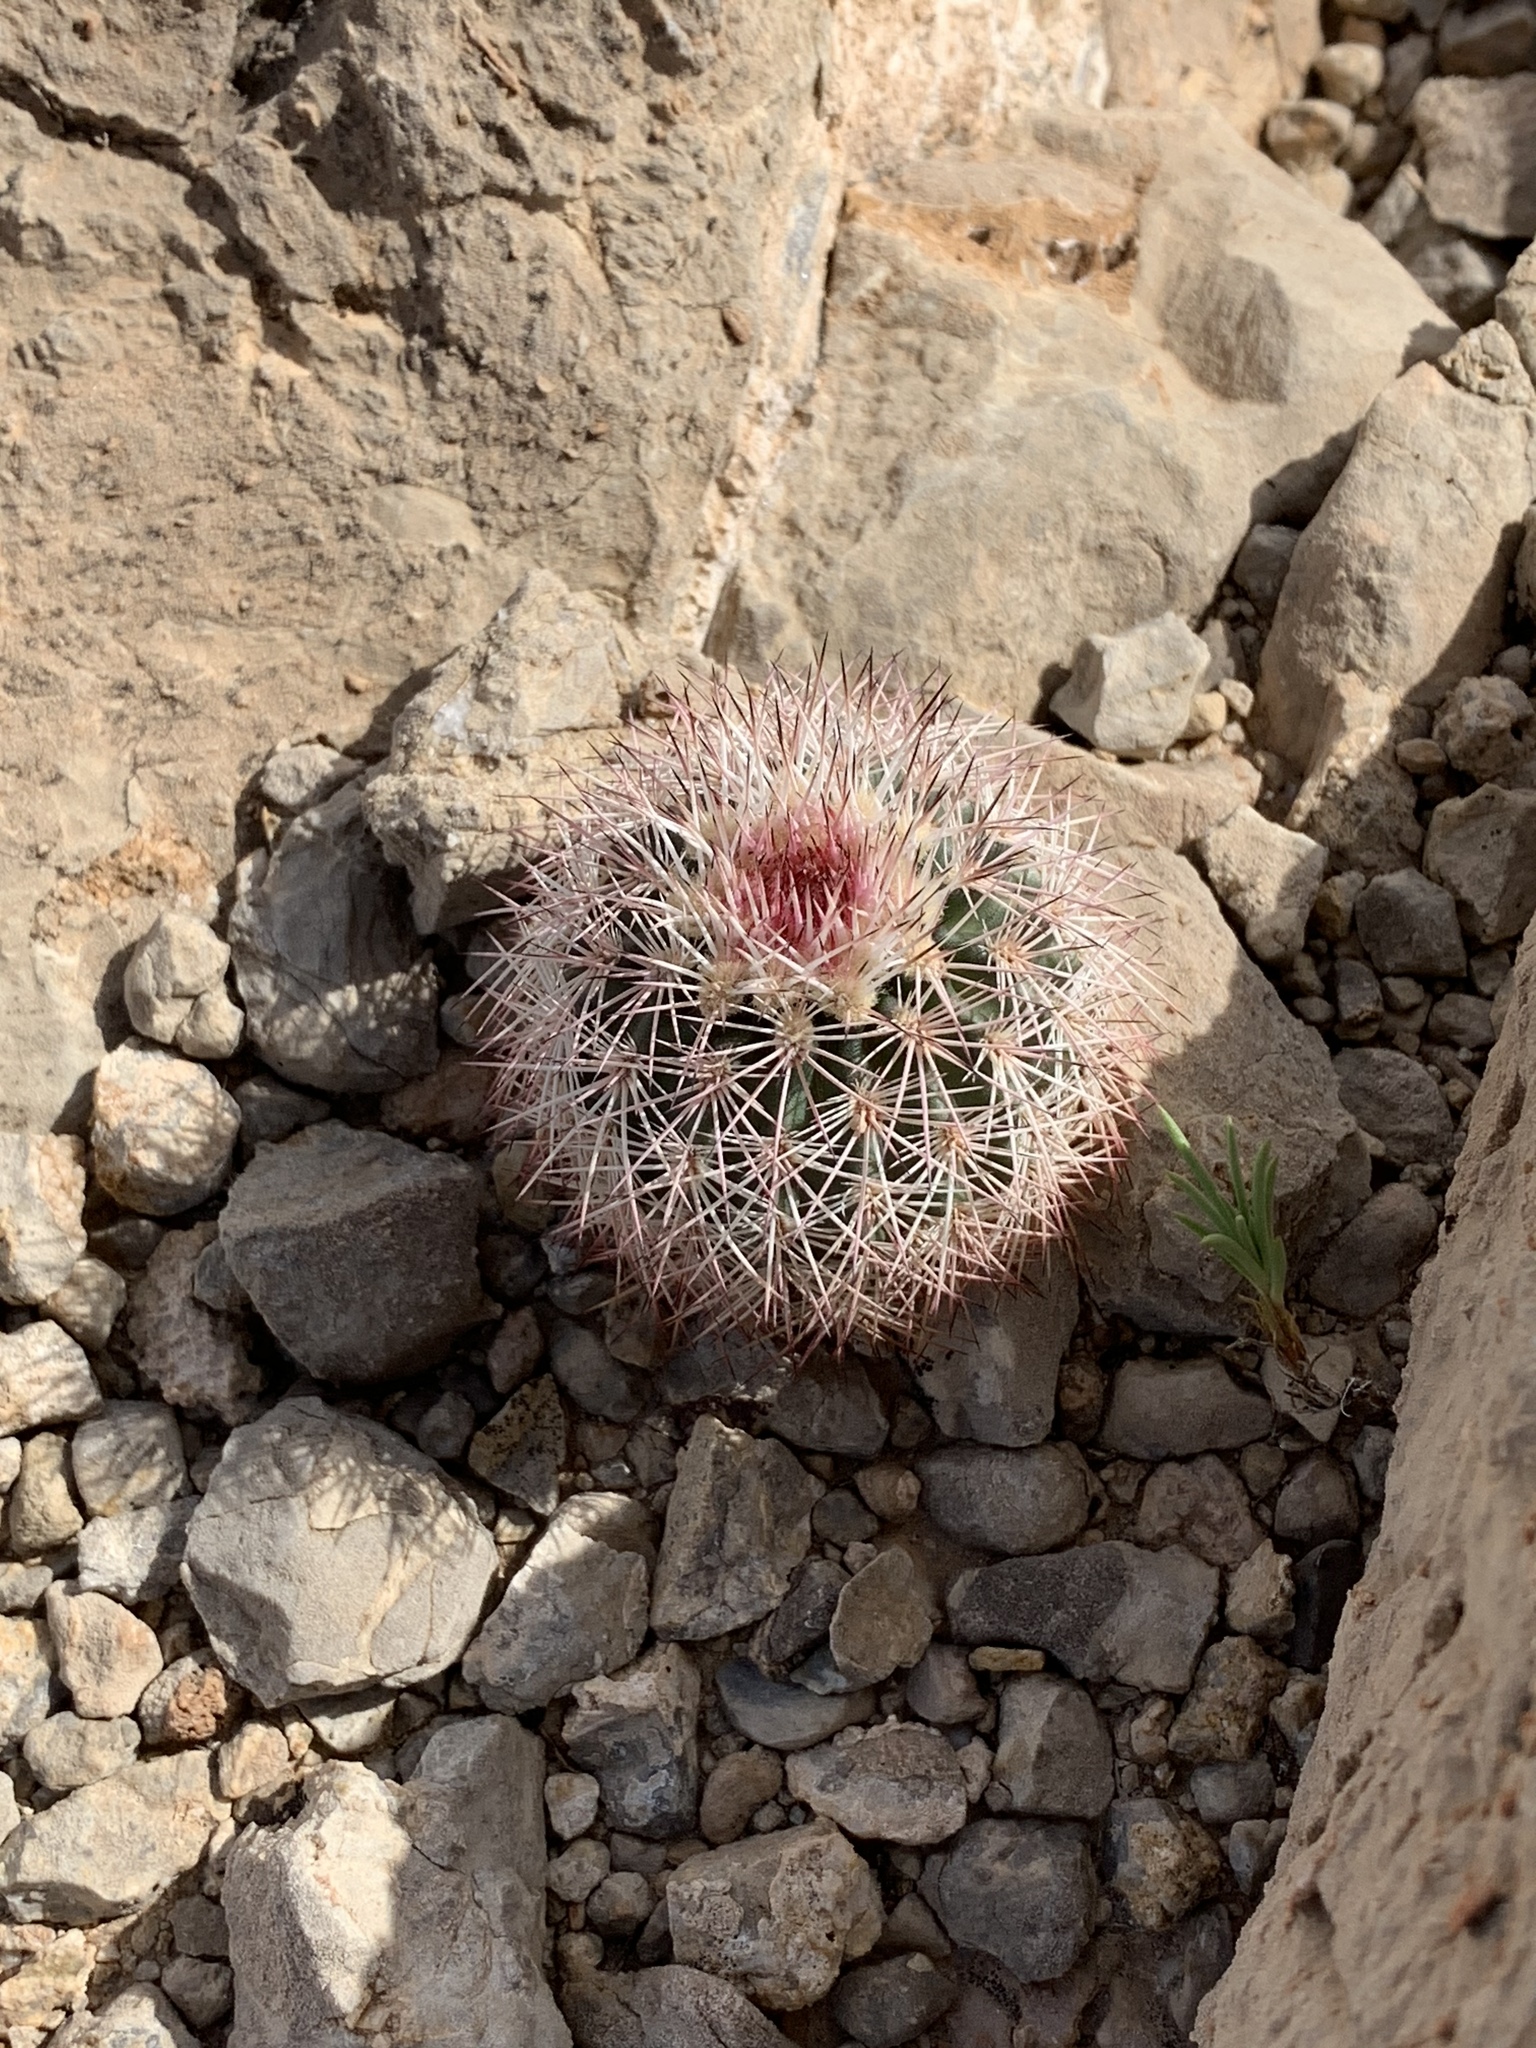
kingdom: Plantae
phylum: Tracheophyta
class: Magnoliopsida
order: Caryophyllales
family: Cactaceae
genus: Echinocereus
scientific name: Echinocereus dasyacanthus
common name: Spiny hedgehog cactus
